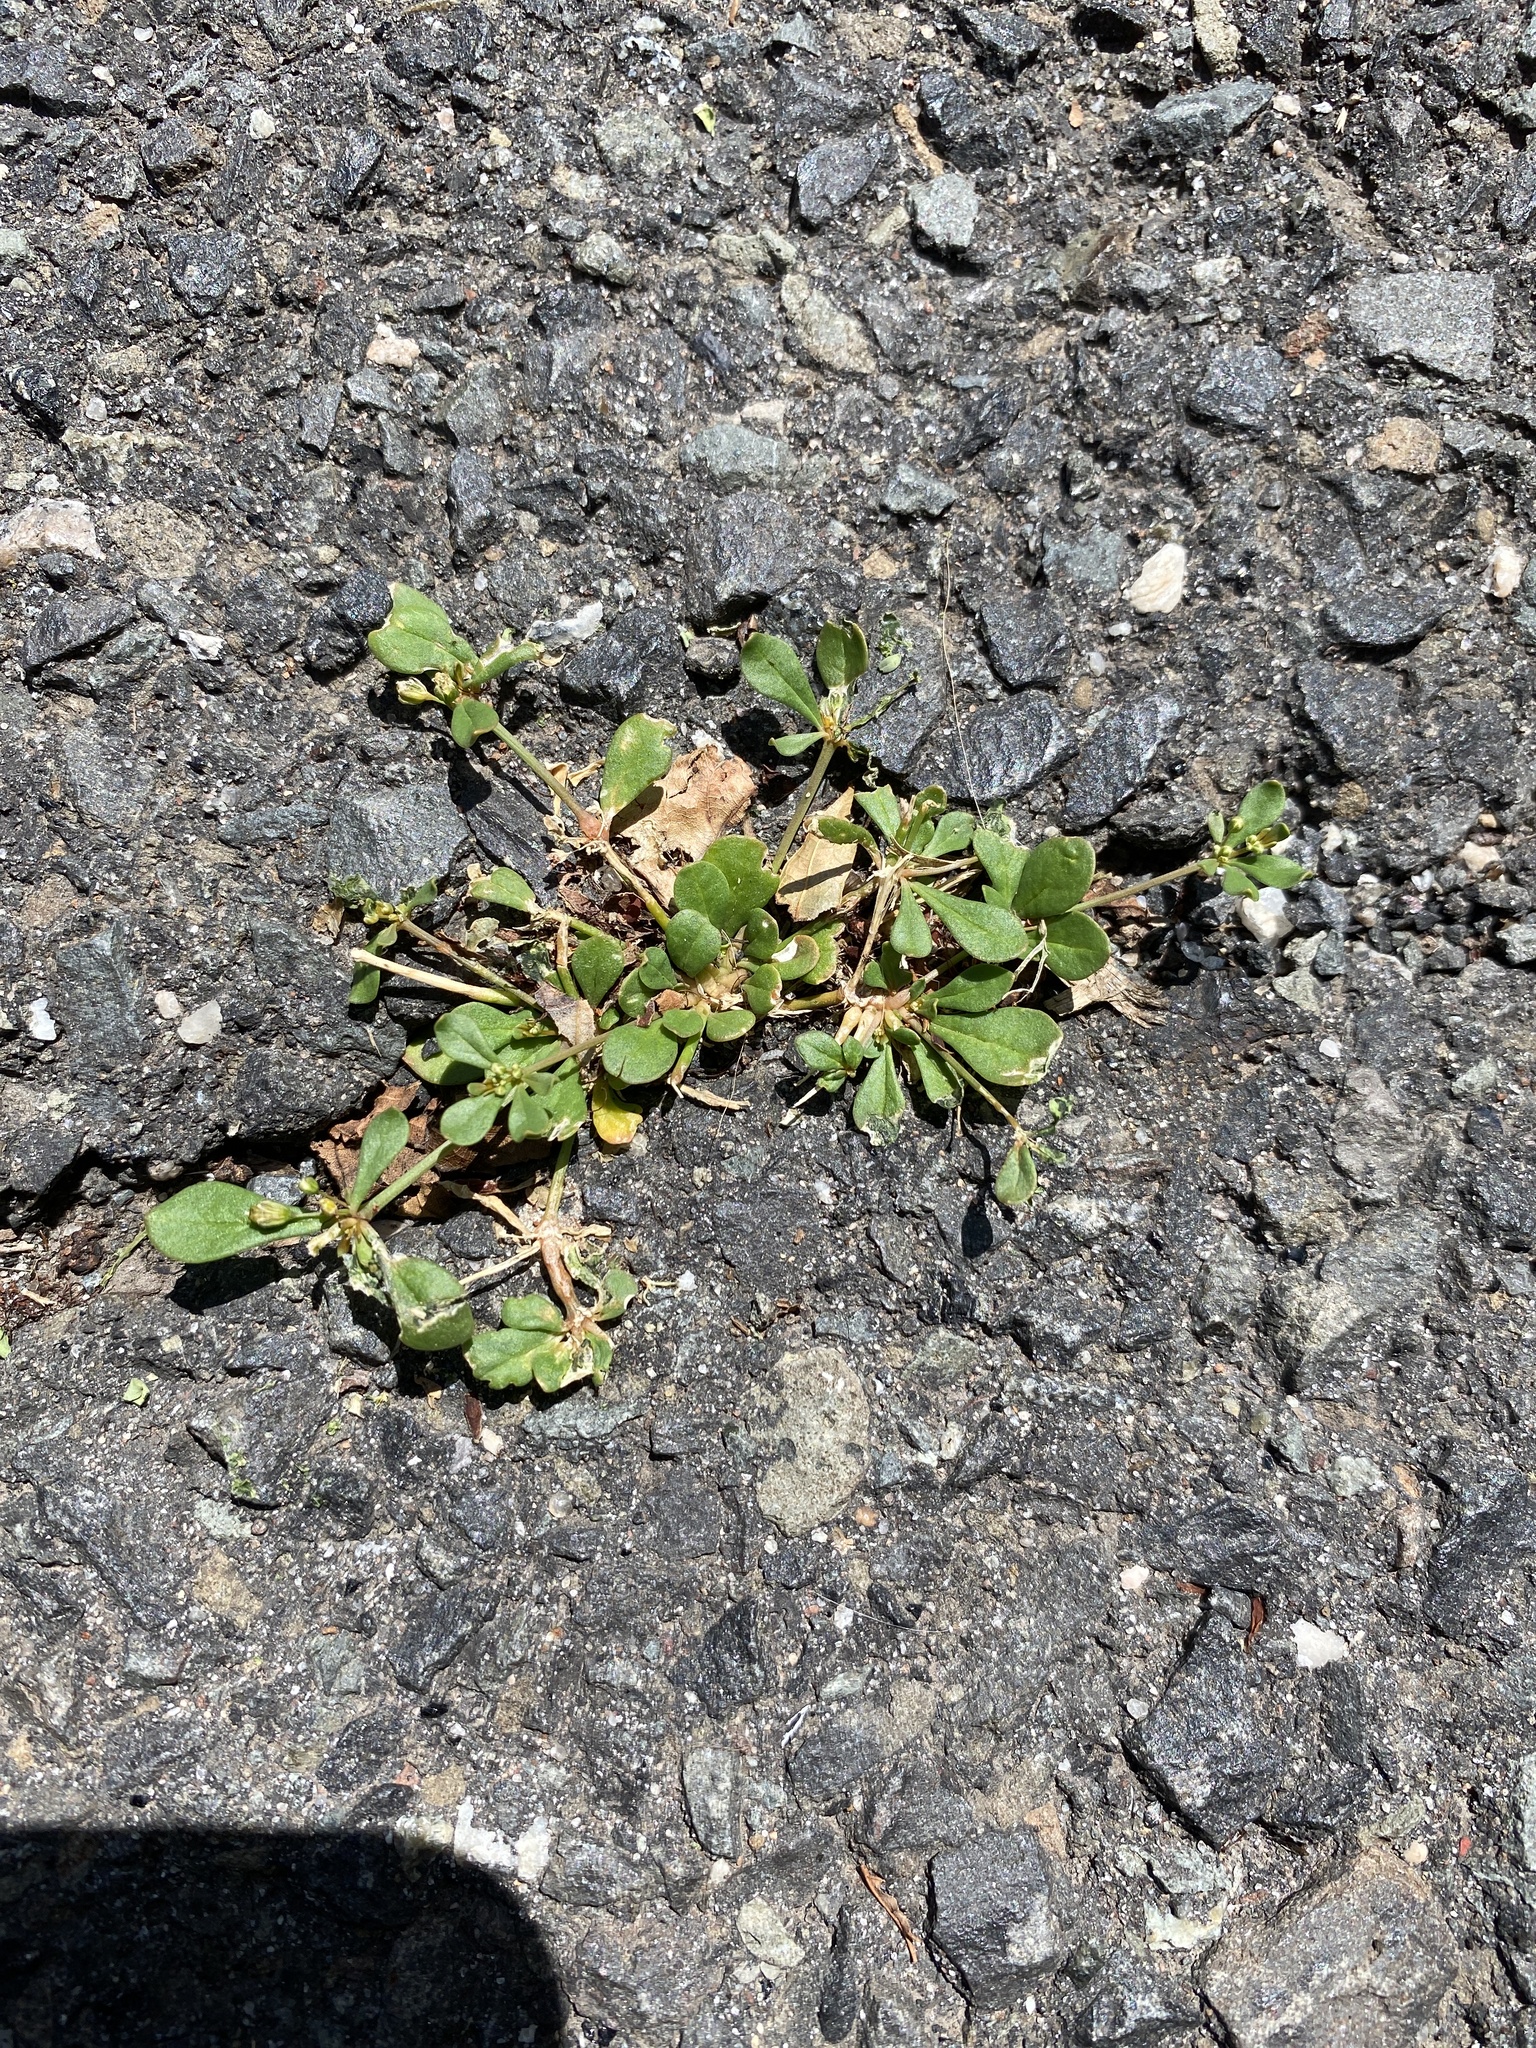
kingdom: Plantae
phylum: Tracheophyta
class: Magnoliopsida
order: Caryophyllales
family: Molluginaceae
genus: Mollugo
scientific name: Mollugo verticillata
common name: Green carpetweed
